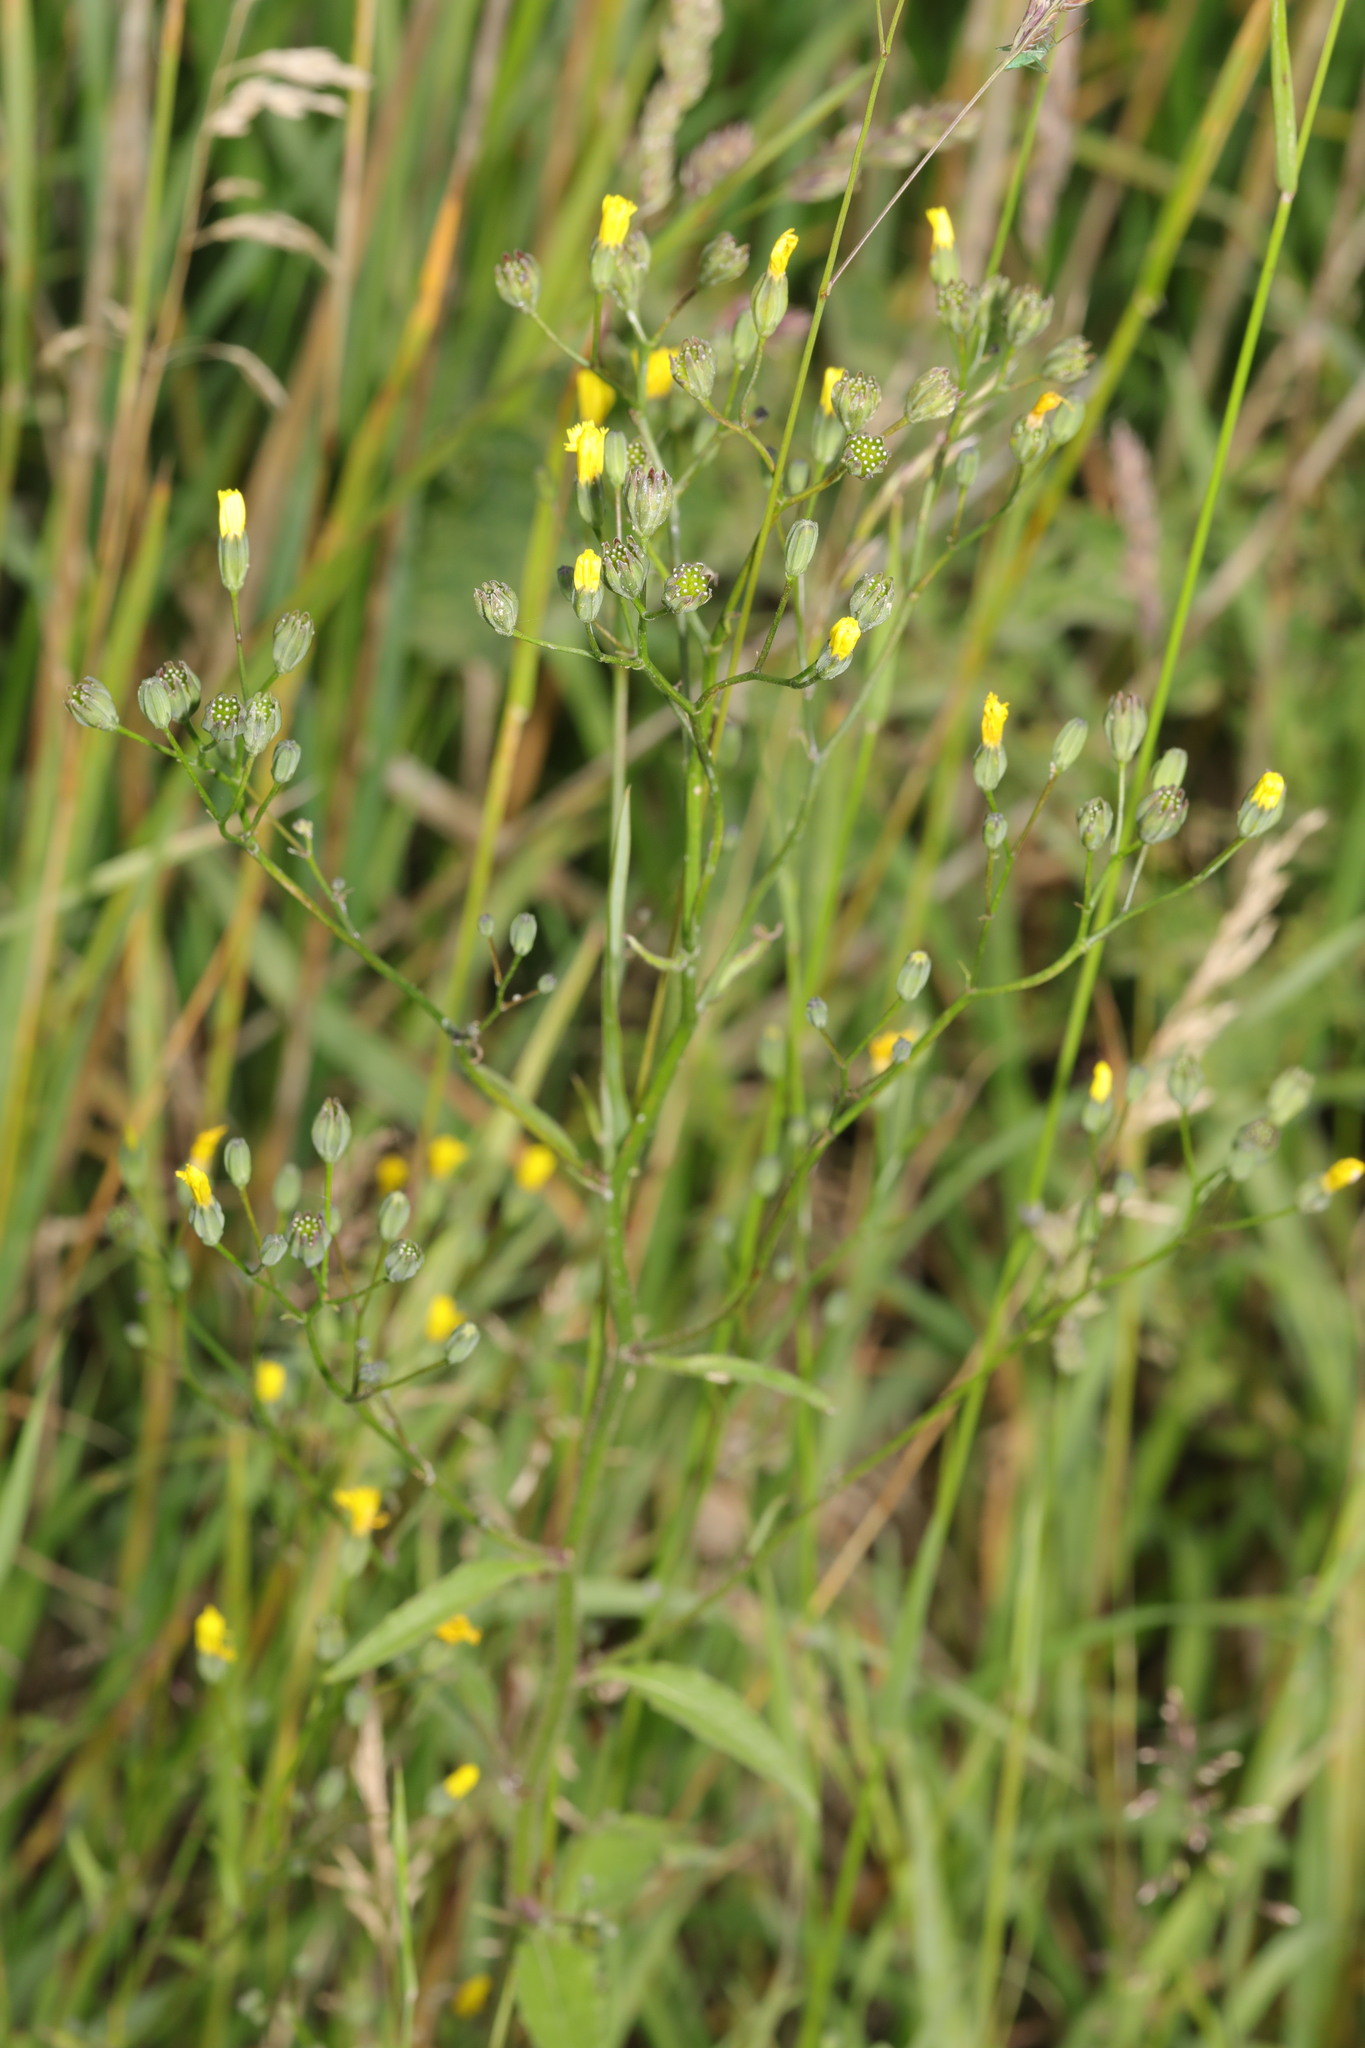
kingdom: Plantae
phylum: Tracheophyta
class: Magnoliopsida
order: Asterales
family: Asteraceae
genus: Lapsana
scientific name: Lapsana communis
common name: Nipplewort
